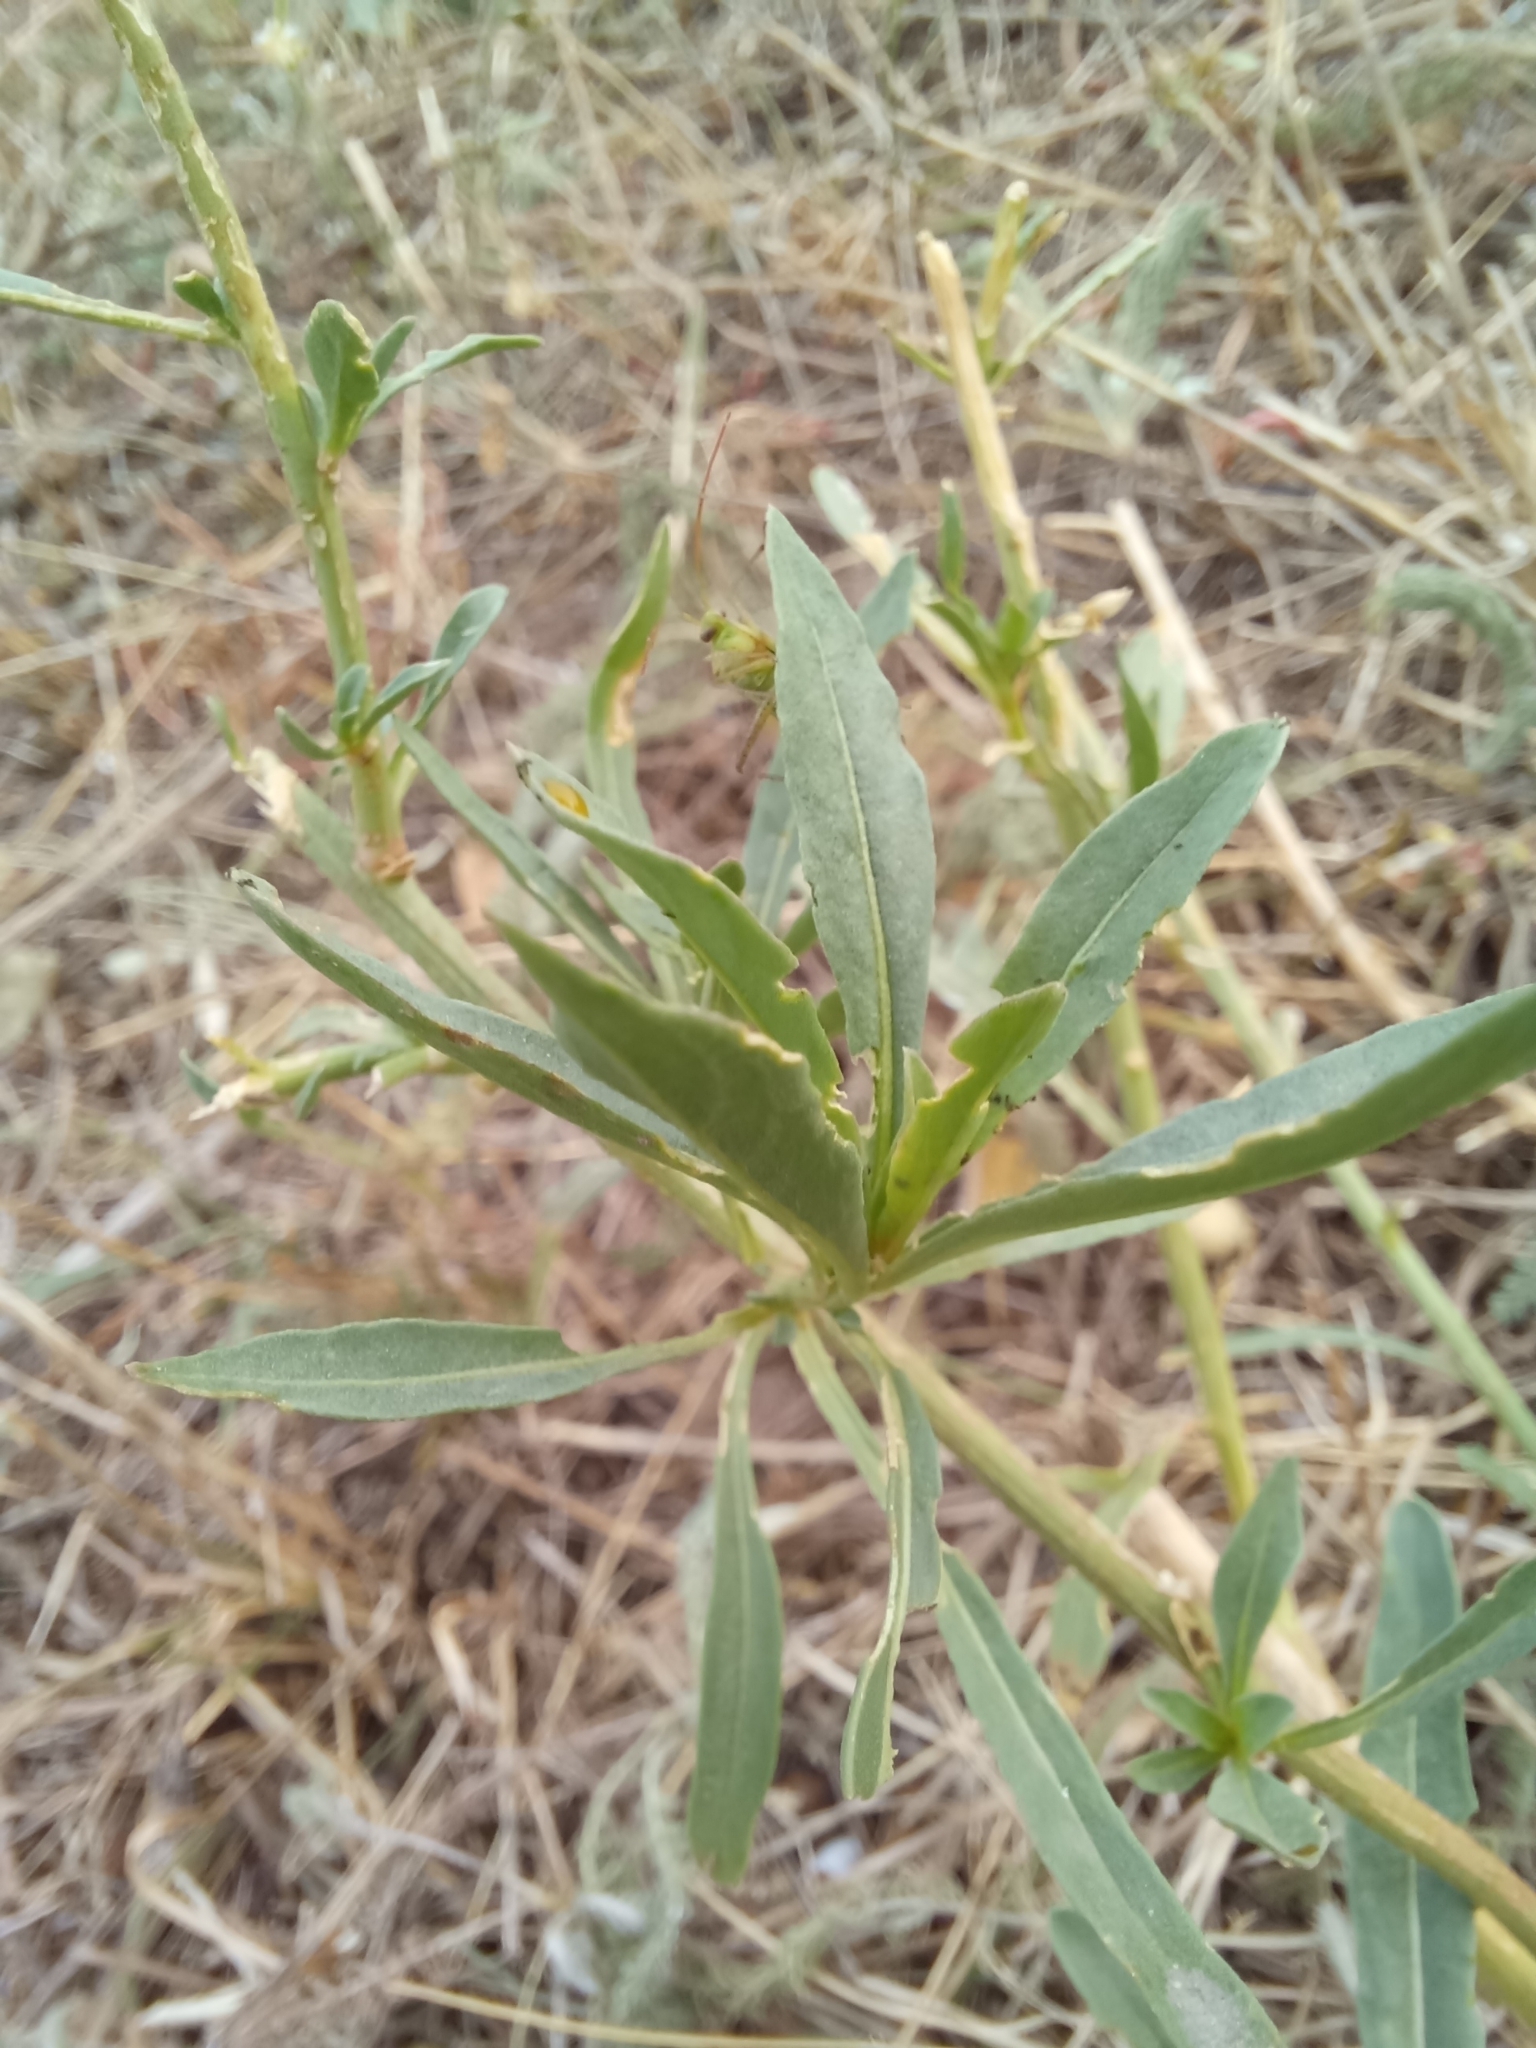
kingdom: Plantae
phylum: Tracheophyta
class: Magnoliopsida
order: Brassicales
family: Resedaceae
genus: Reseda
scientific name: Reseda lutea
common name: Wild mignonette
